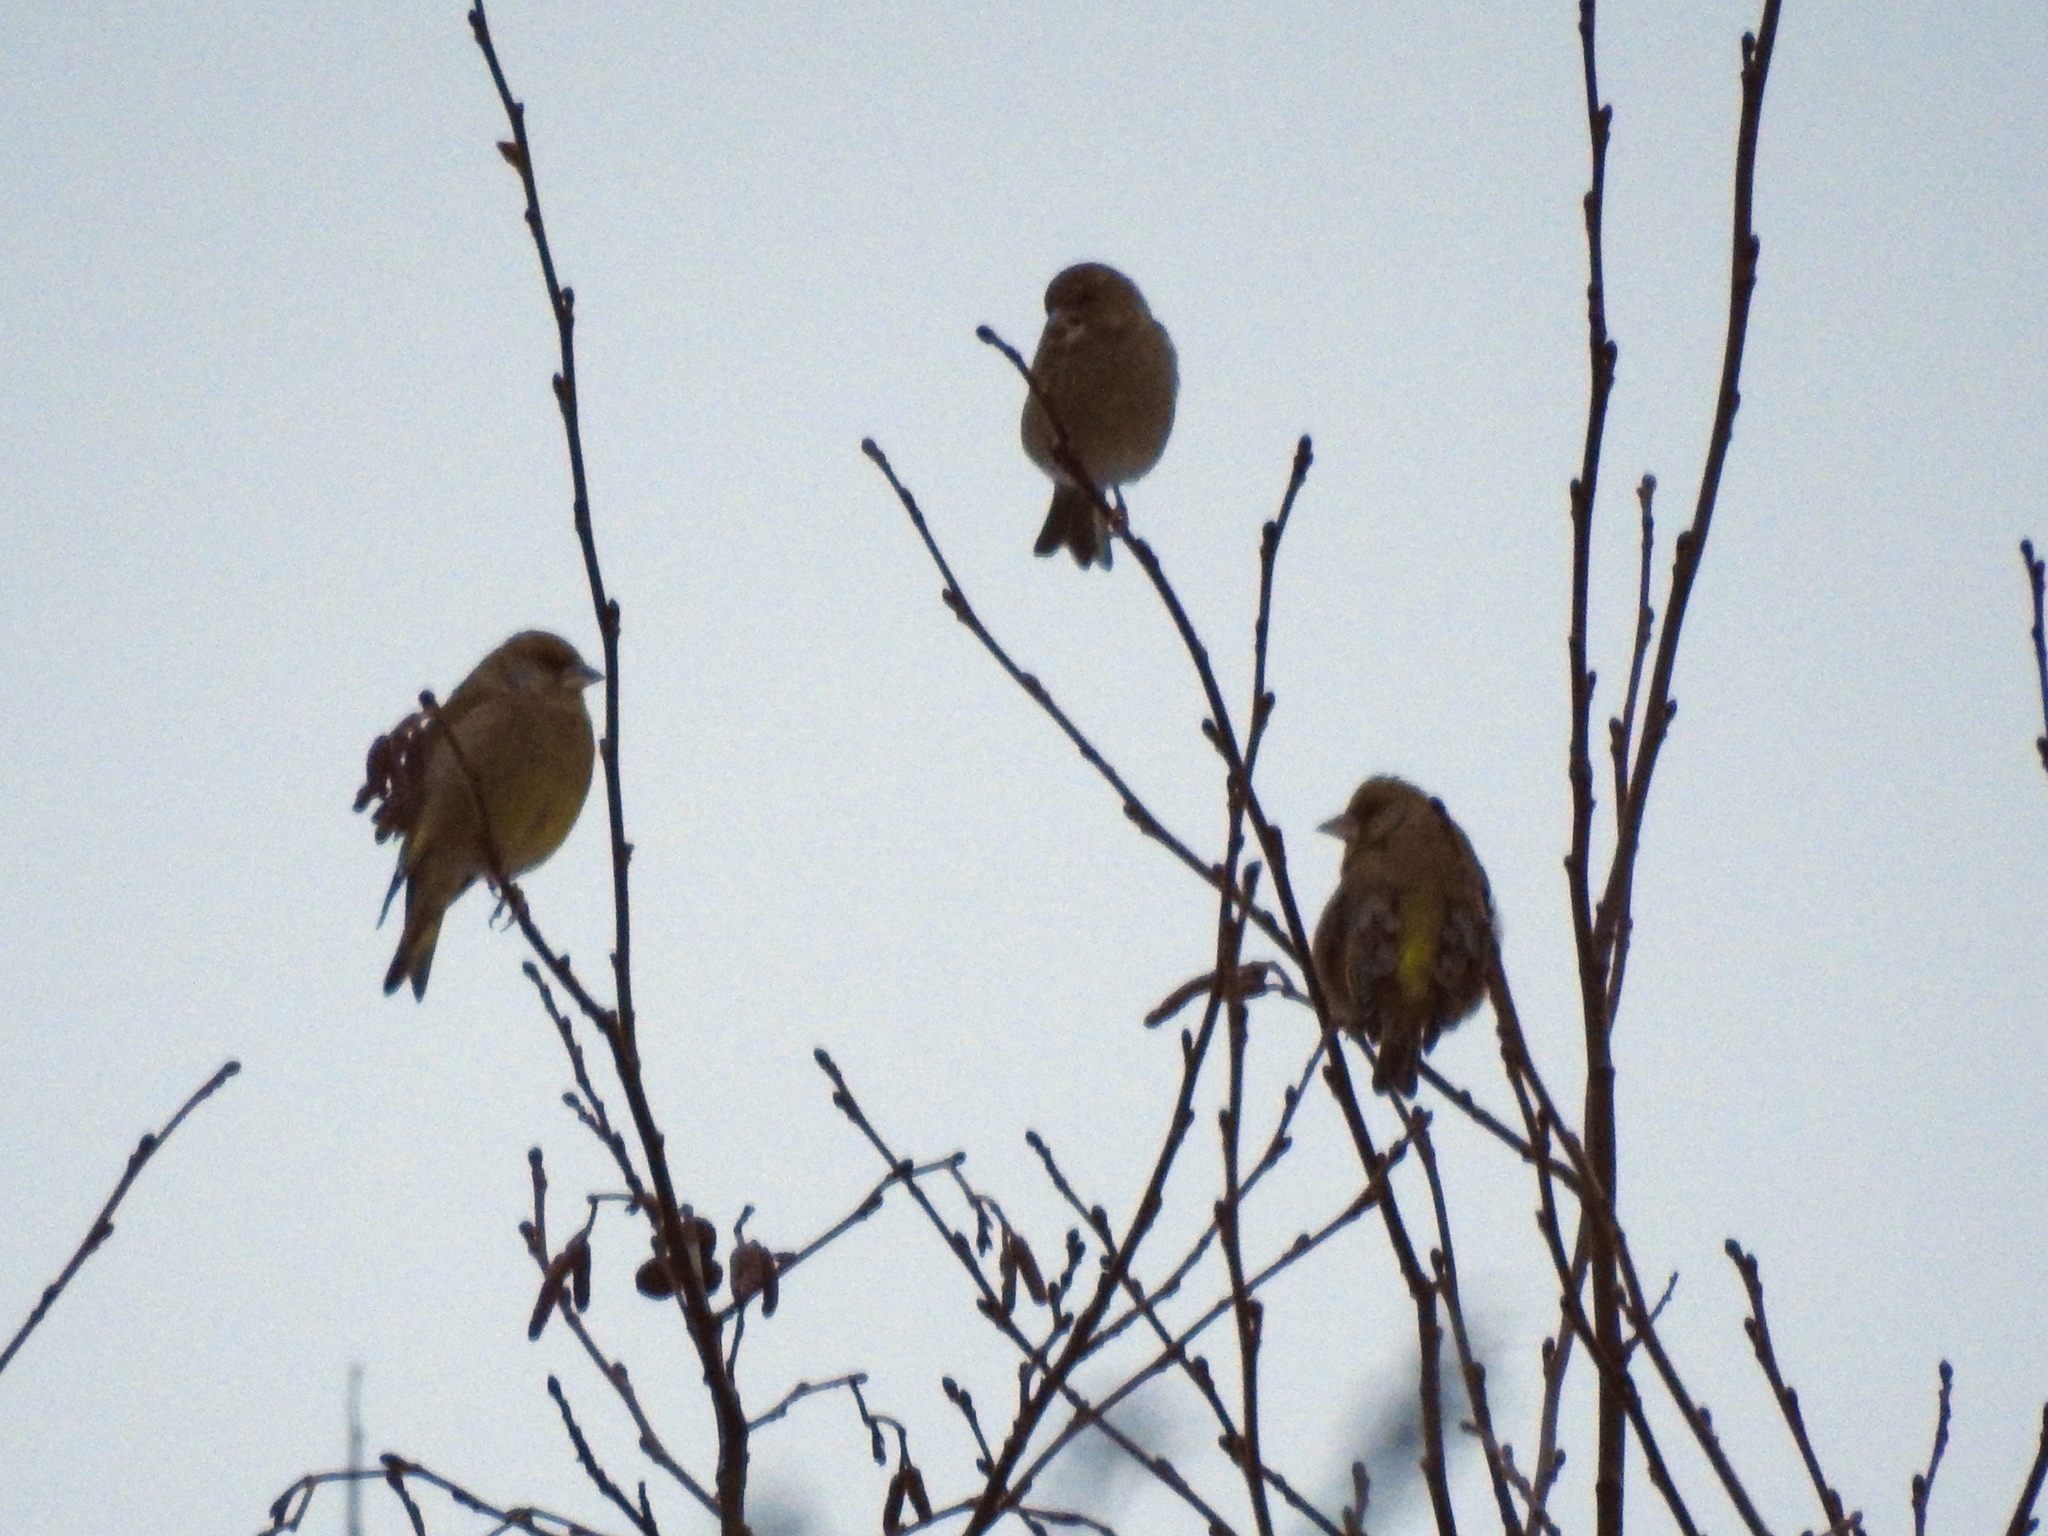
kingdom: Plantae
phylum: Tracheophyta
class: Liliopsida
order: Poales
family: Poaceae
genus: Chloris
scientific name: Chloris chloris
